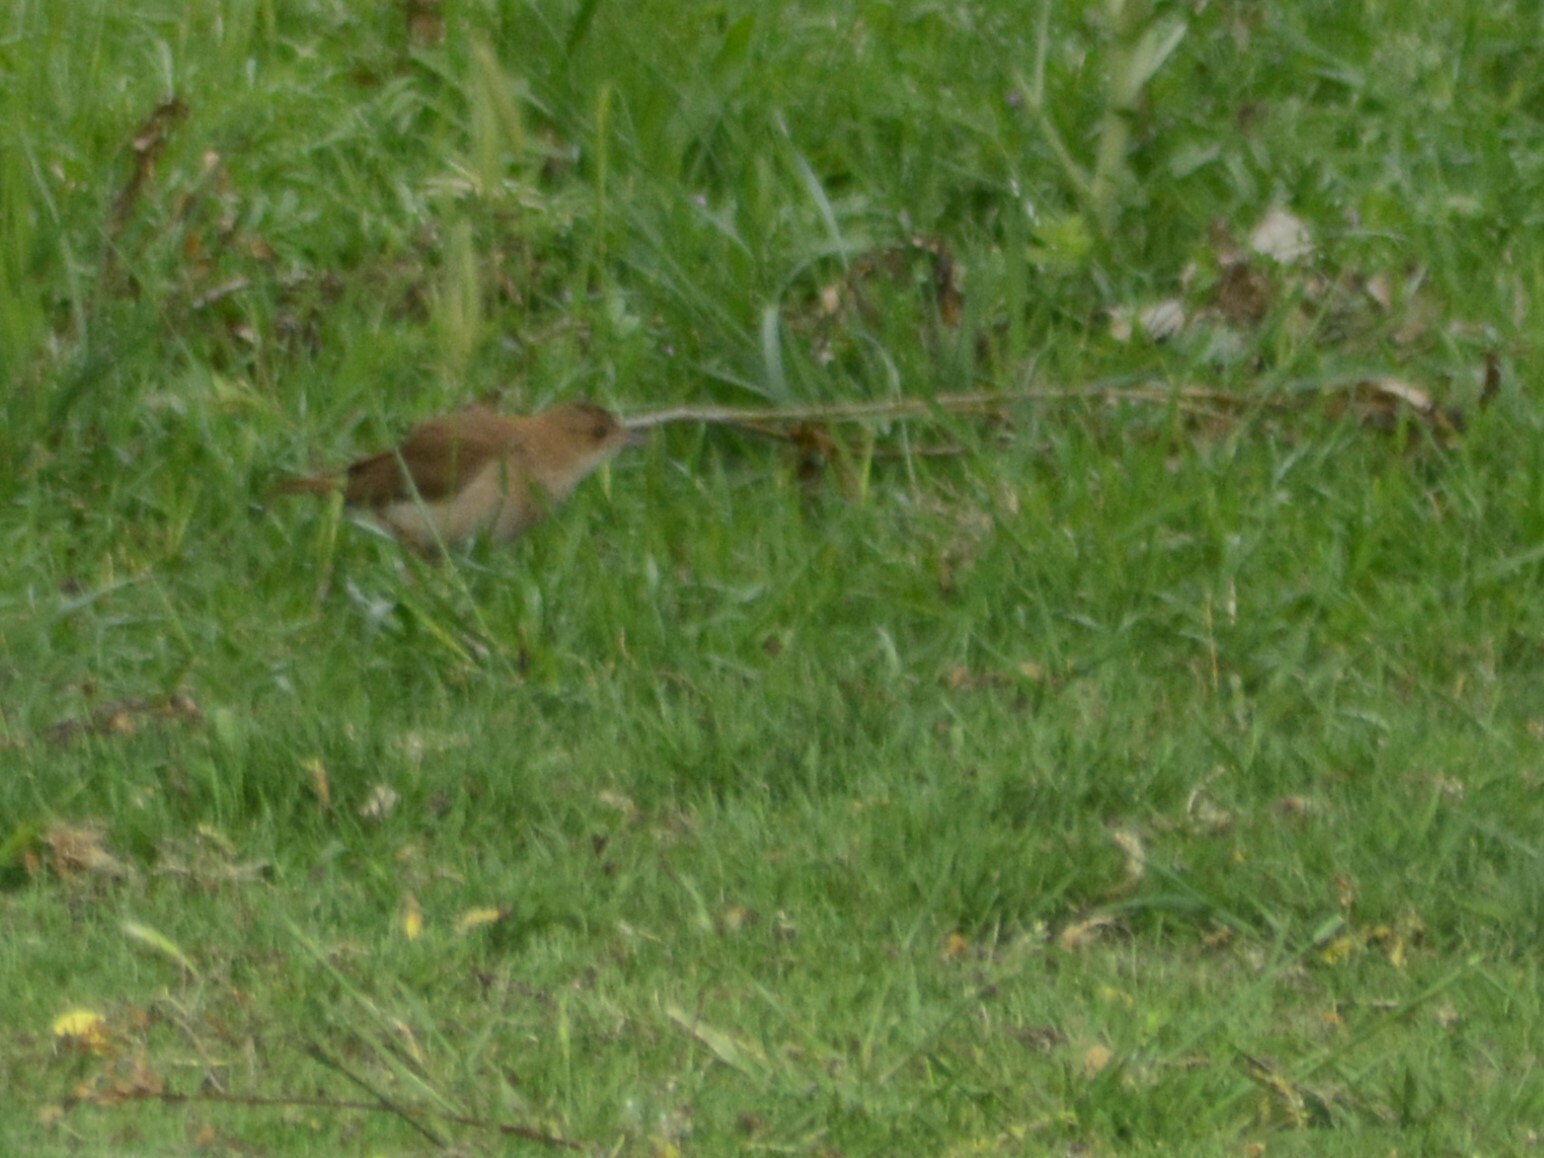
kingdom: Animalia
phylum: Chordata
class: Aves
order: Passeriformes
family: Furnariidae
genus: Furnarius
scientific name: Furnarius rufus
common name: Rufous hornero
